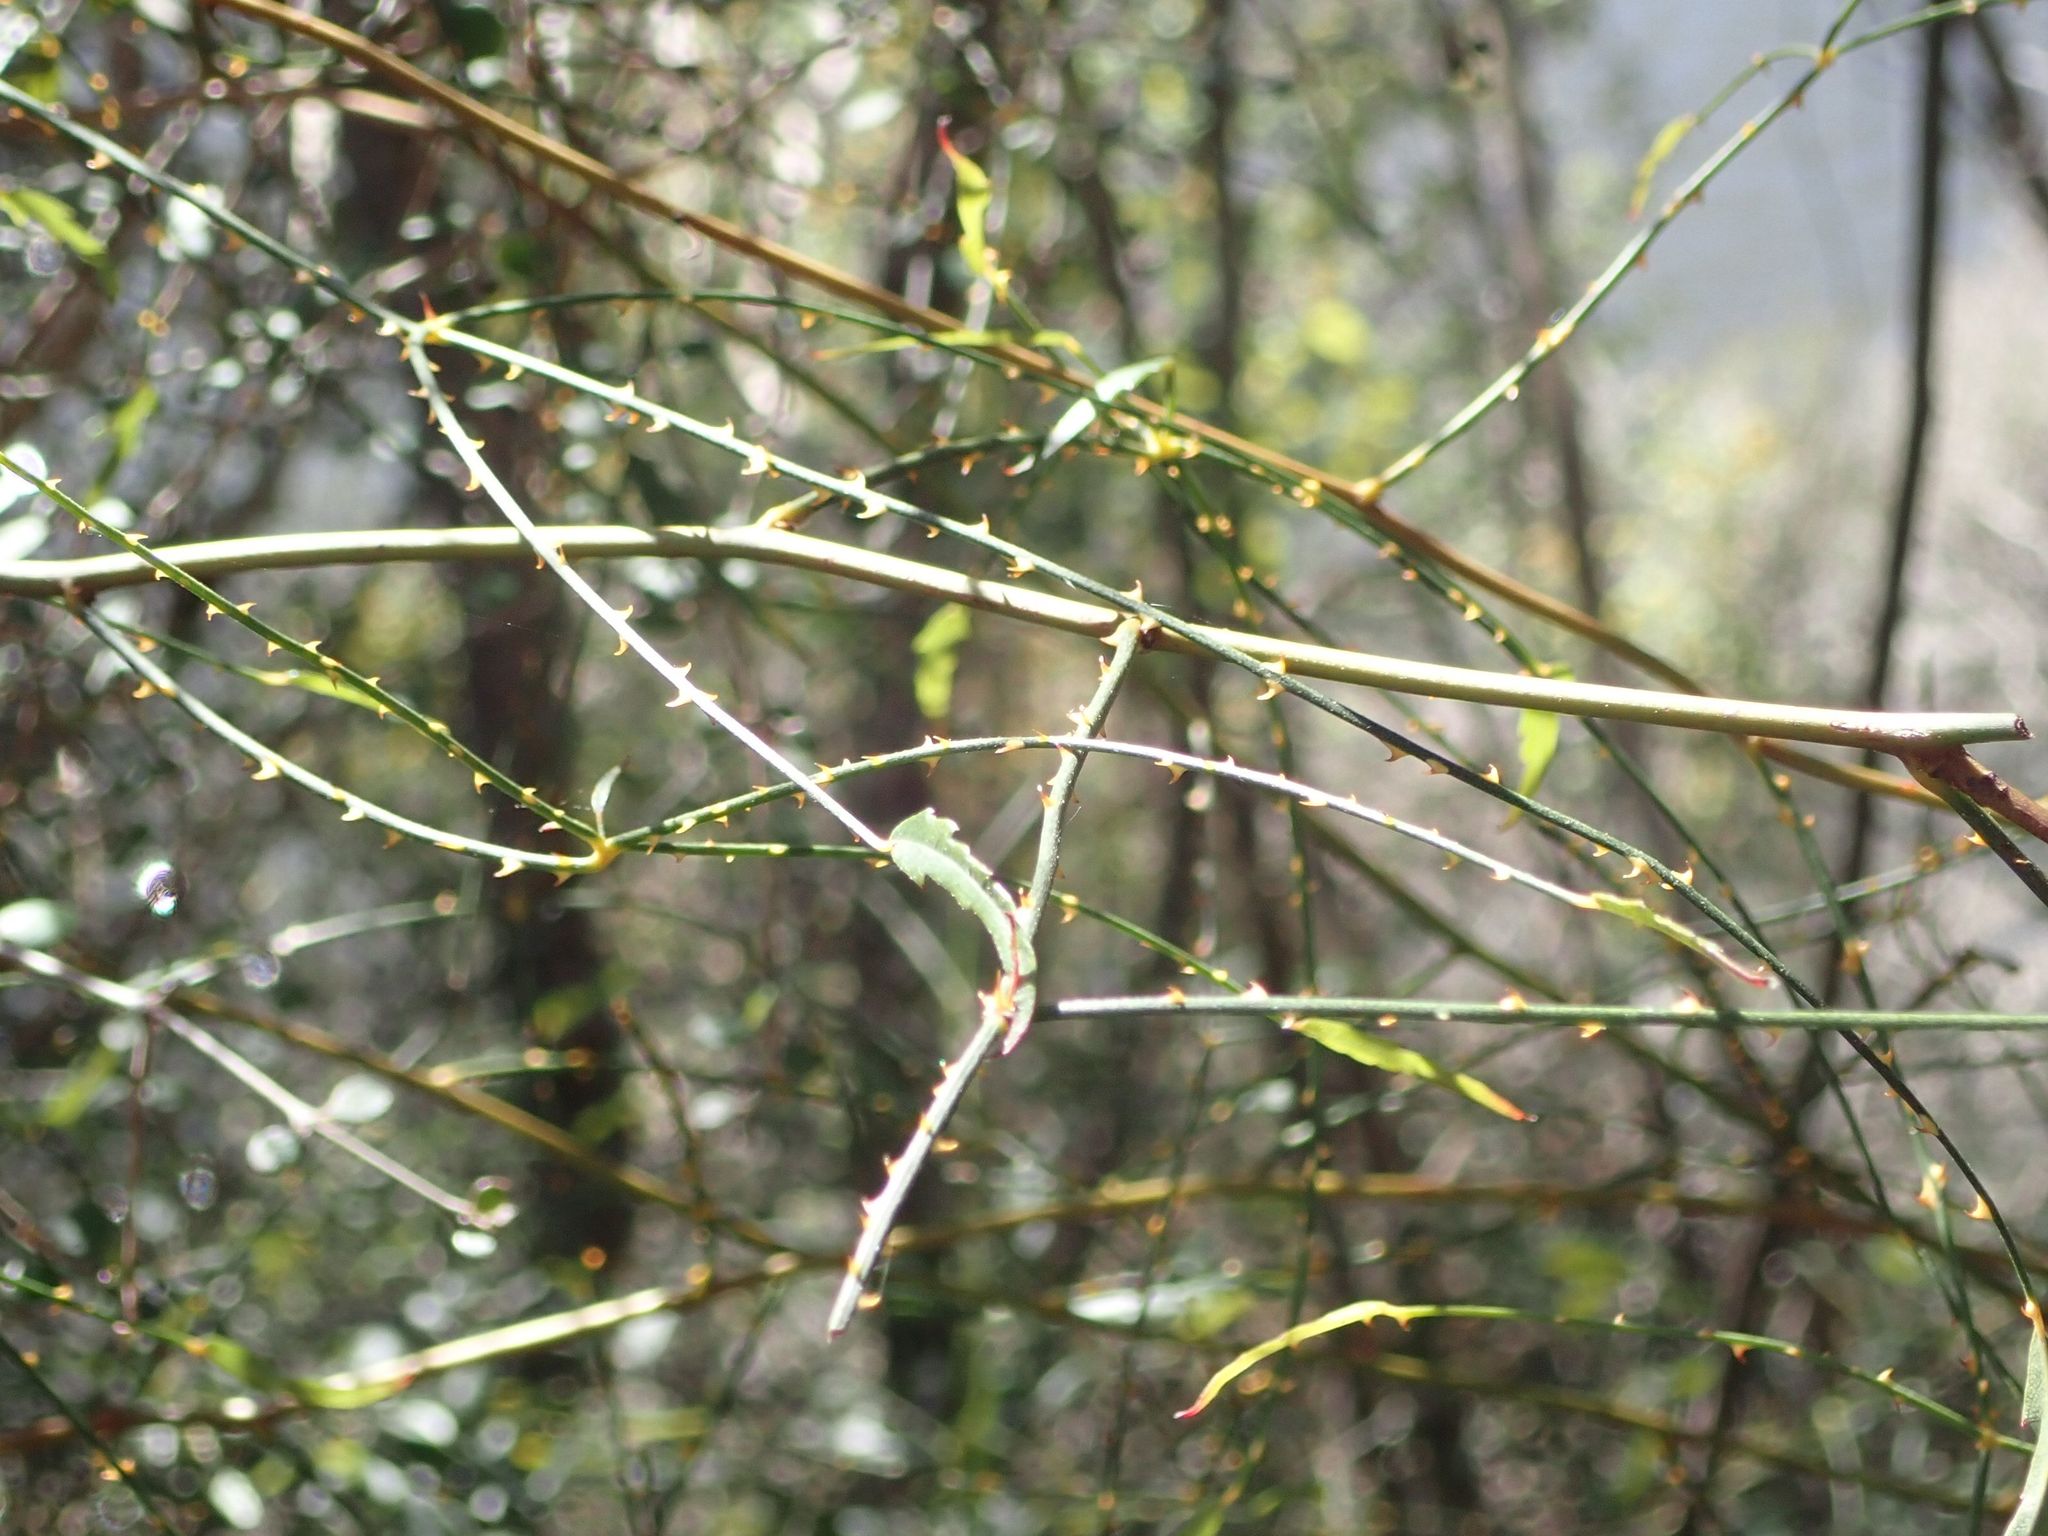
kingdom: Plantae
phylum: Tracheophyta
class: Magnoliopsida
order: Rosales
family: Rosaceae
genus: Rubus
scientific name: Rubus squarrosus
